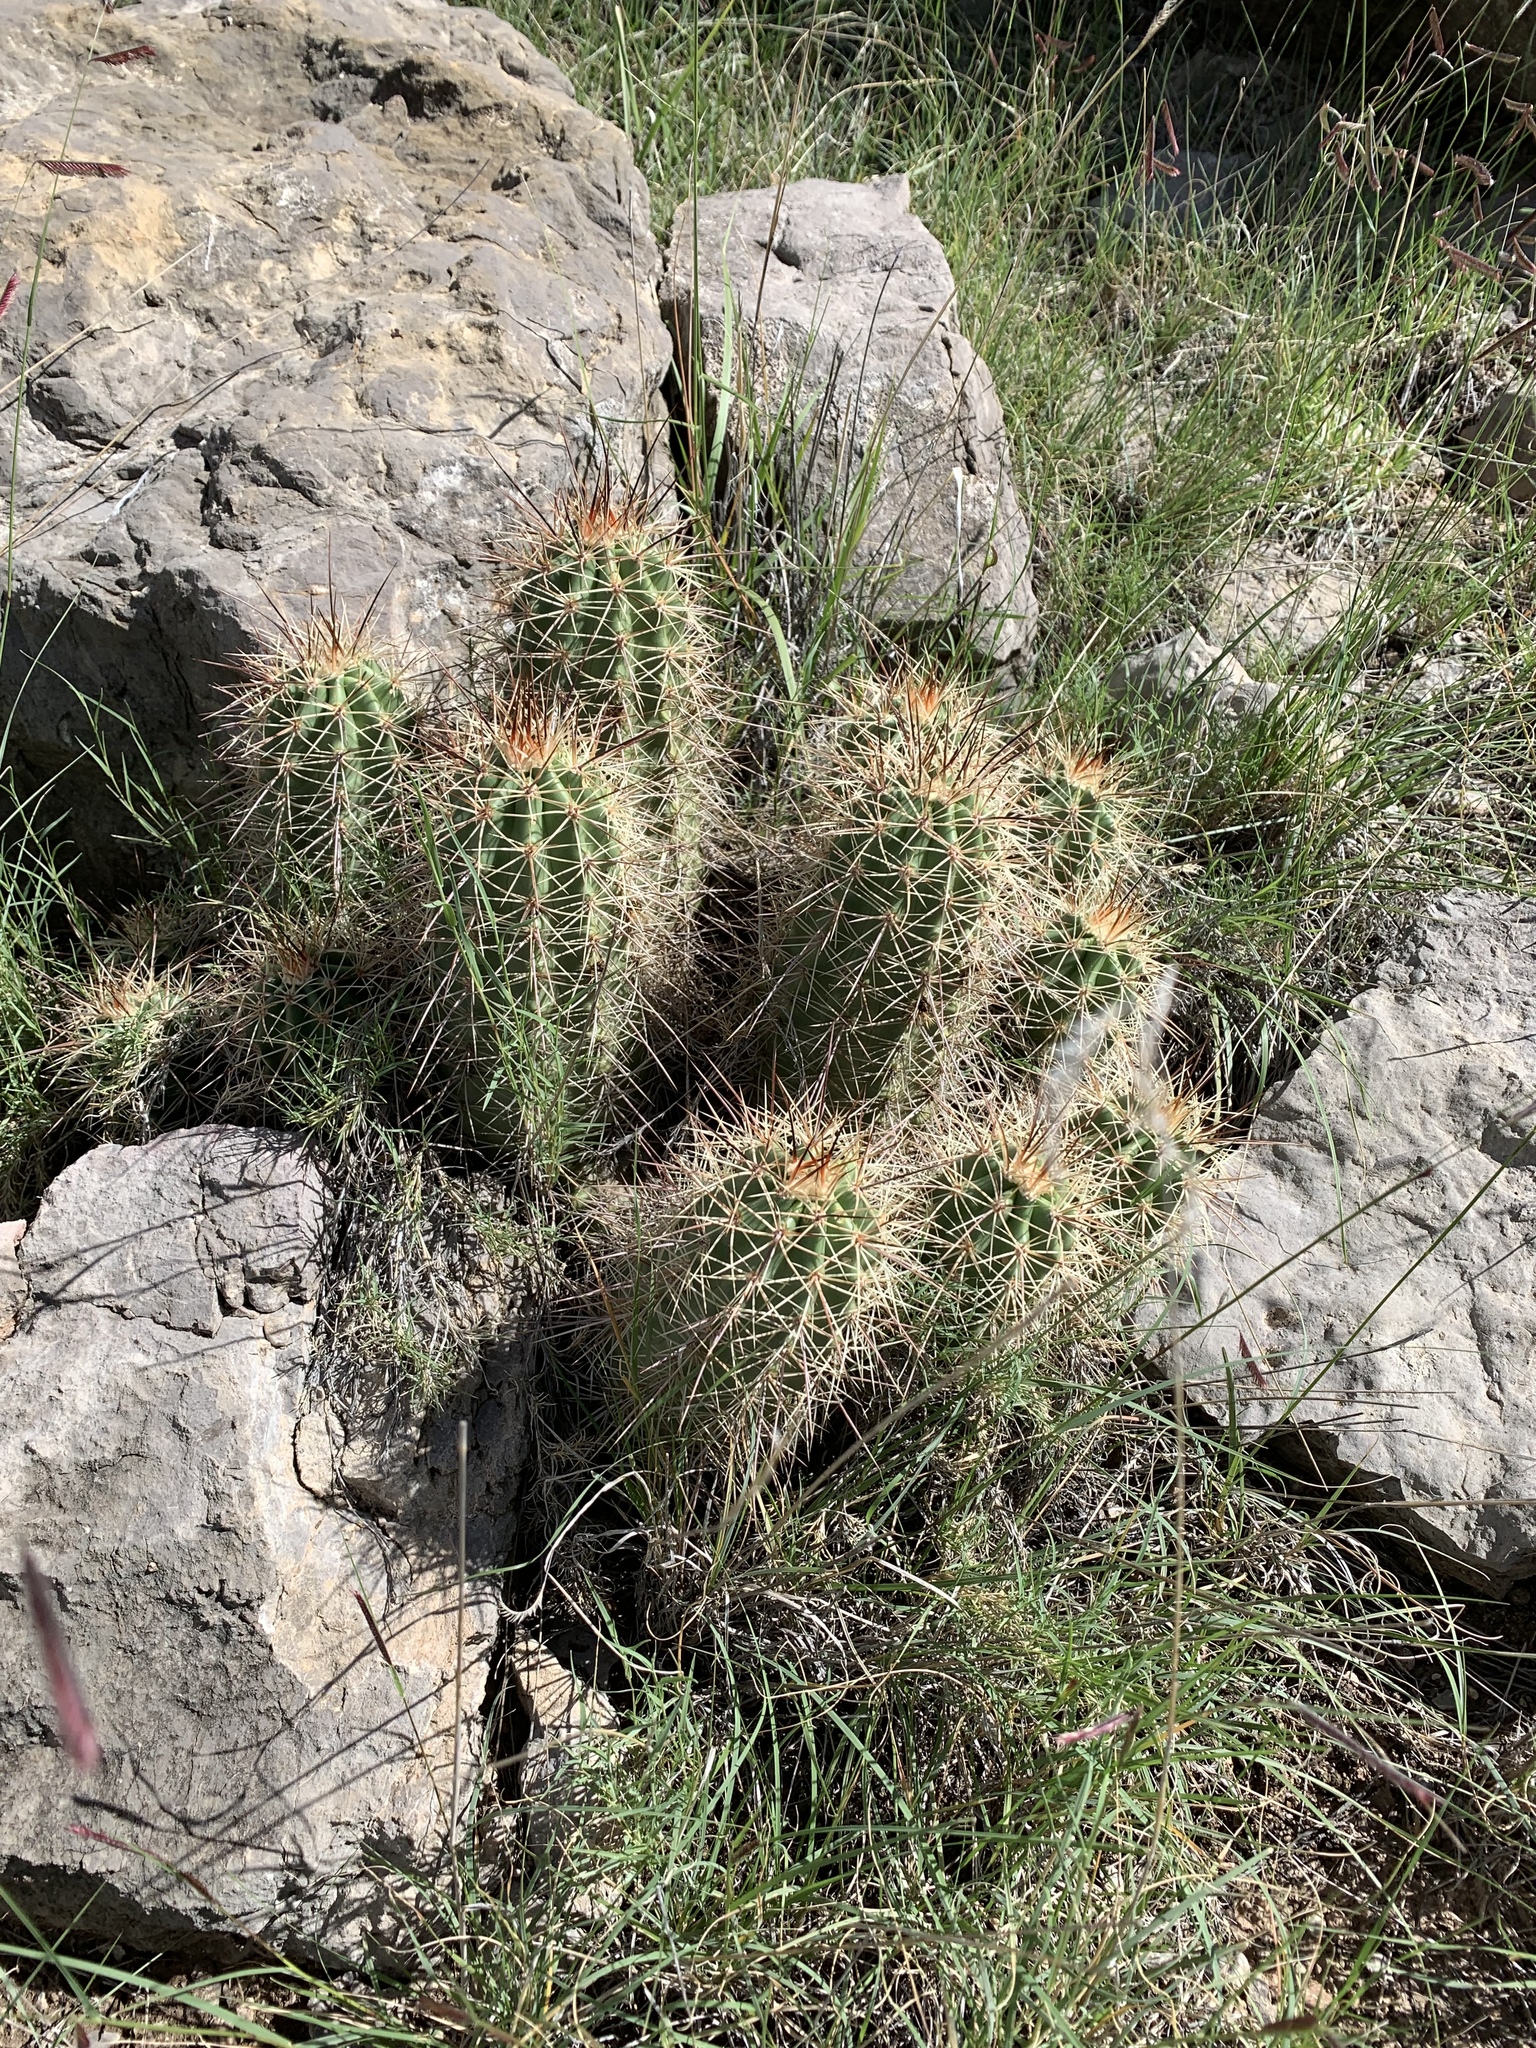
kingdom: Plantae
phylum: Tracheophyta
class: Magnoliopsida
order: Caryophyllales
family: Cactaceae
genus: Echinocereus
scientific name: Echinocereus coccineus
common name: Scarlet hedgehog cactus
